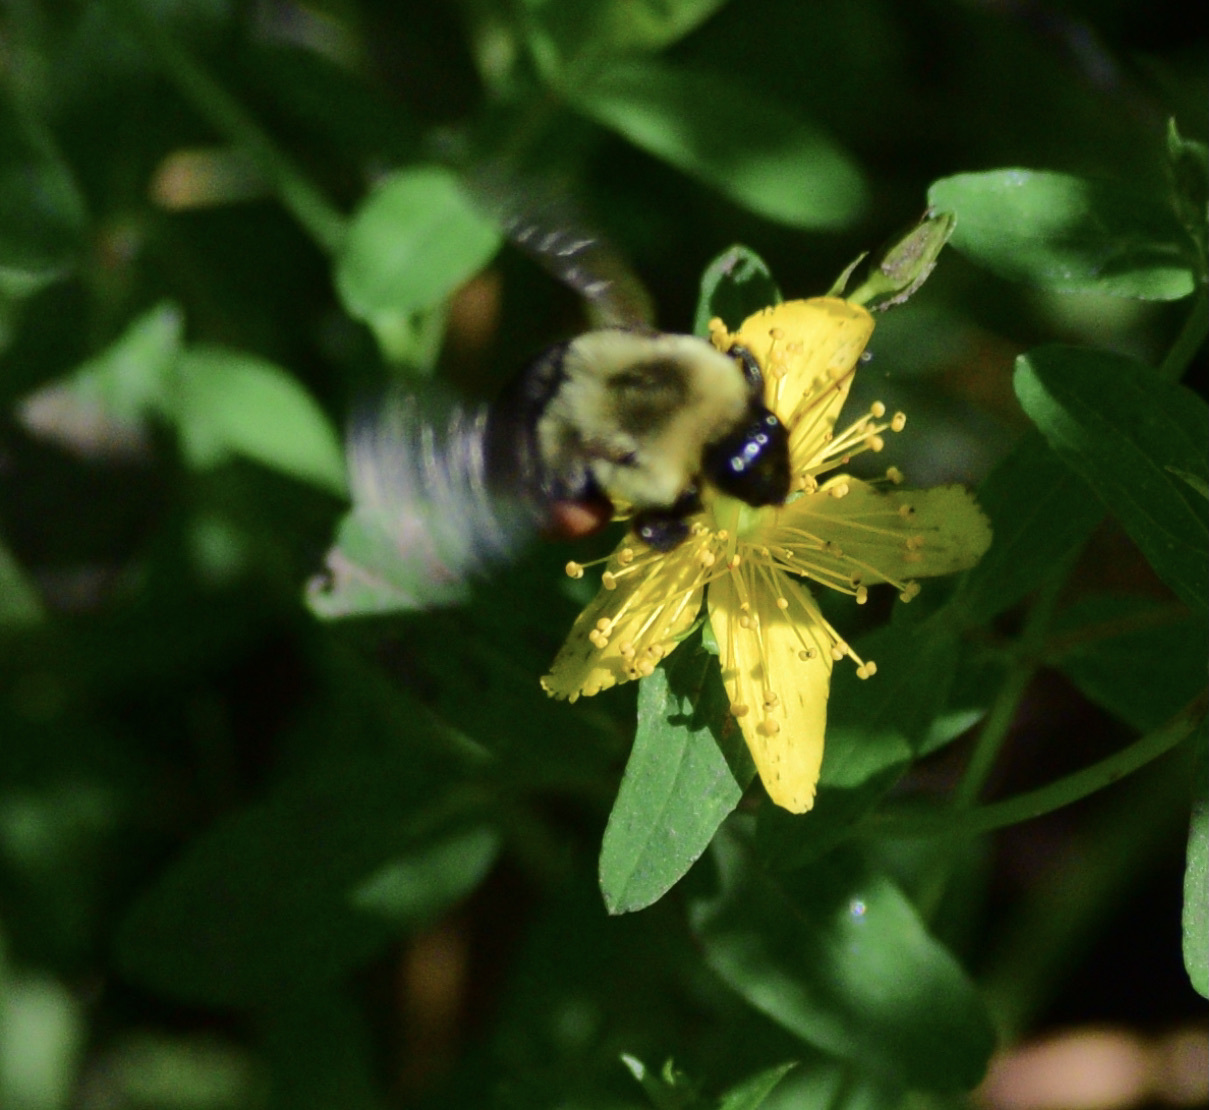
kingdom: Animalia
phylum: Arthropoda
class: Insecta
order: Hymenoptera
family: Apidae
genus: Bombus
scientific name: Bombus impatiens
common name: Common eastern bumble bee
